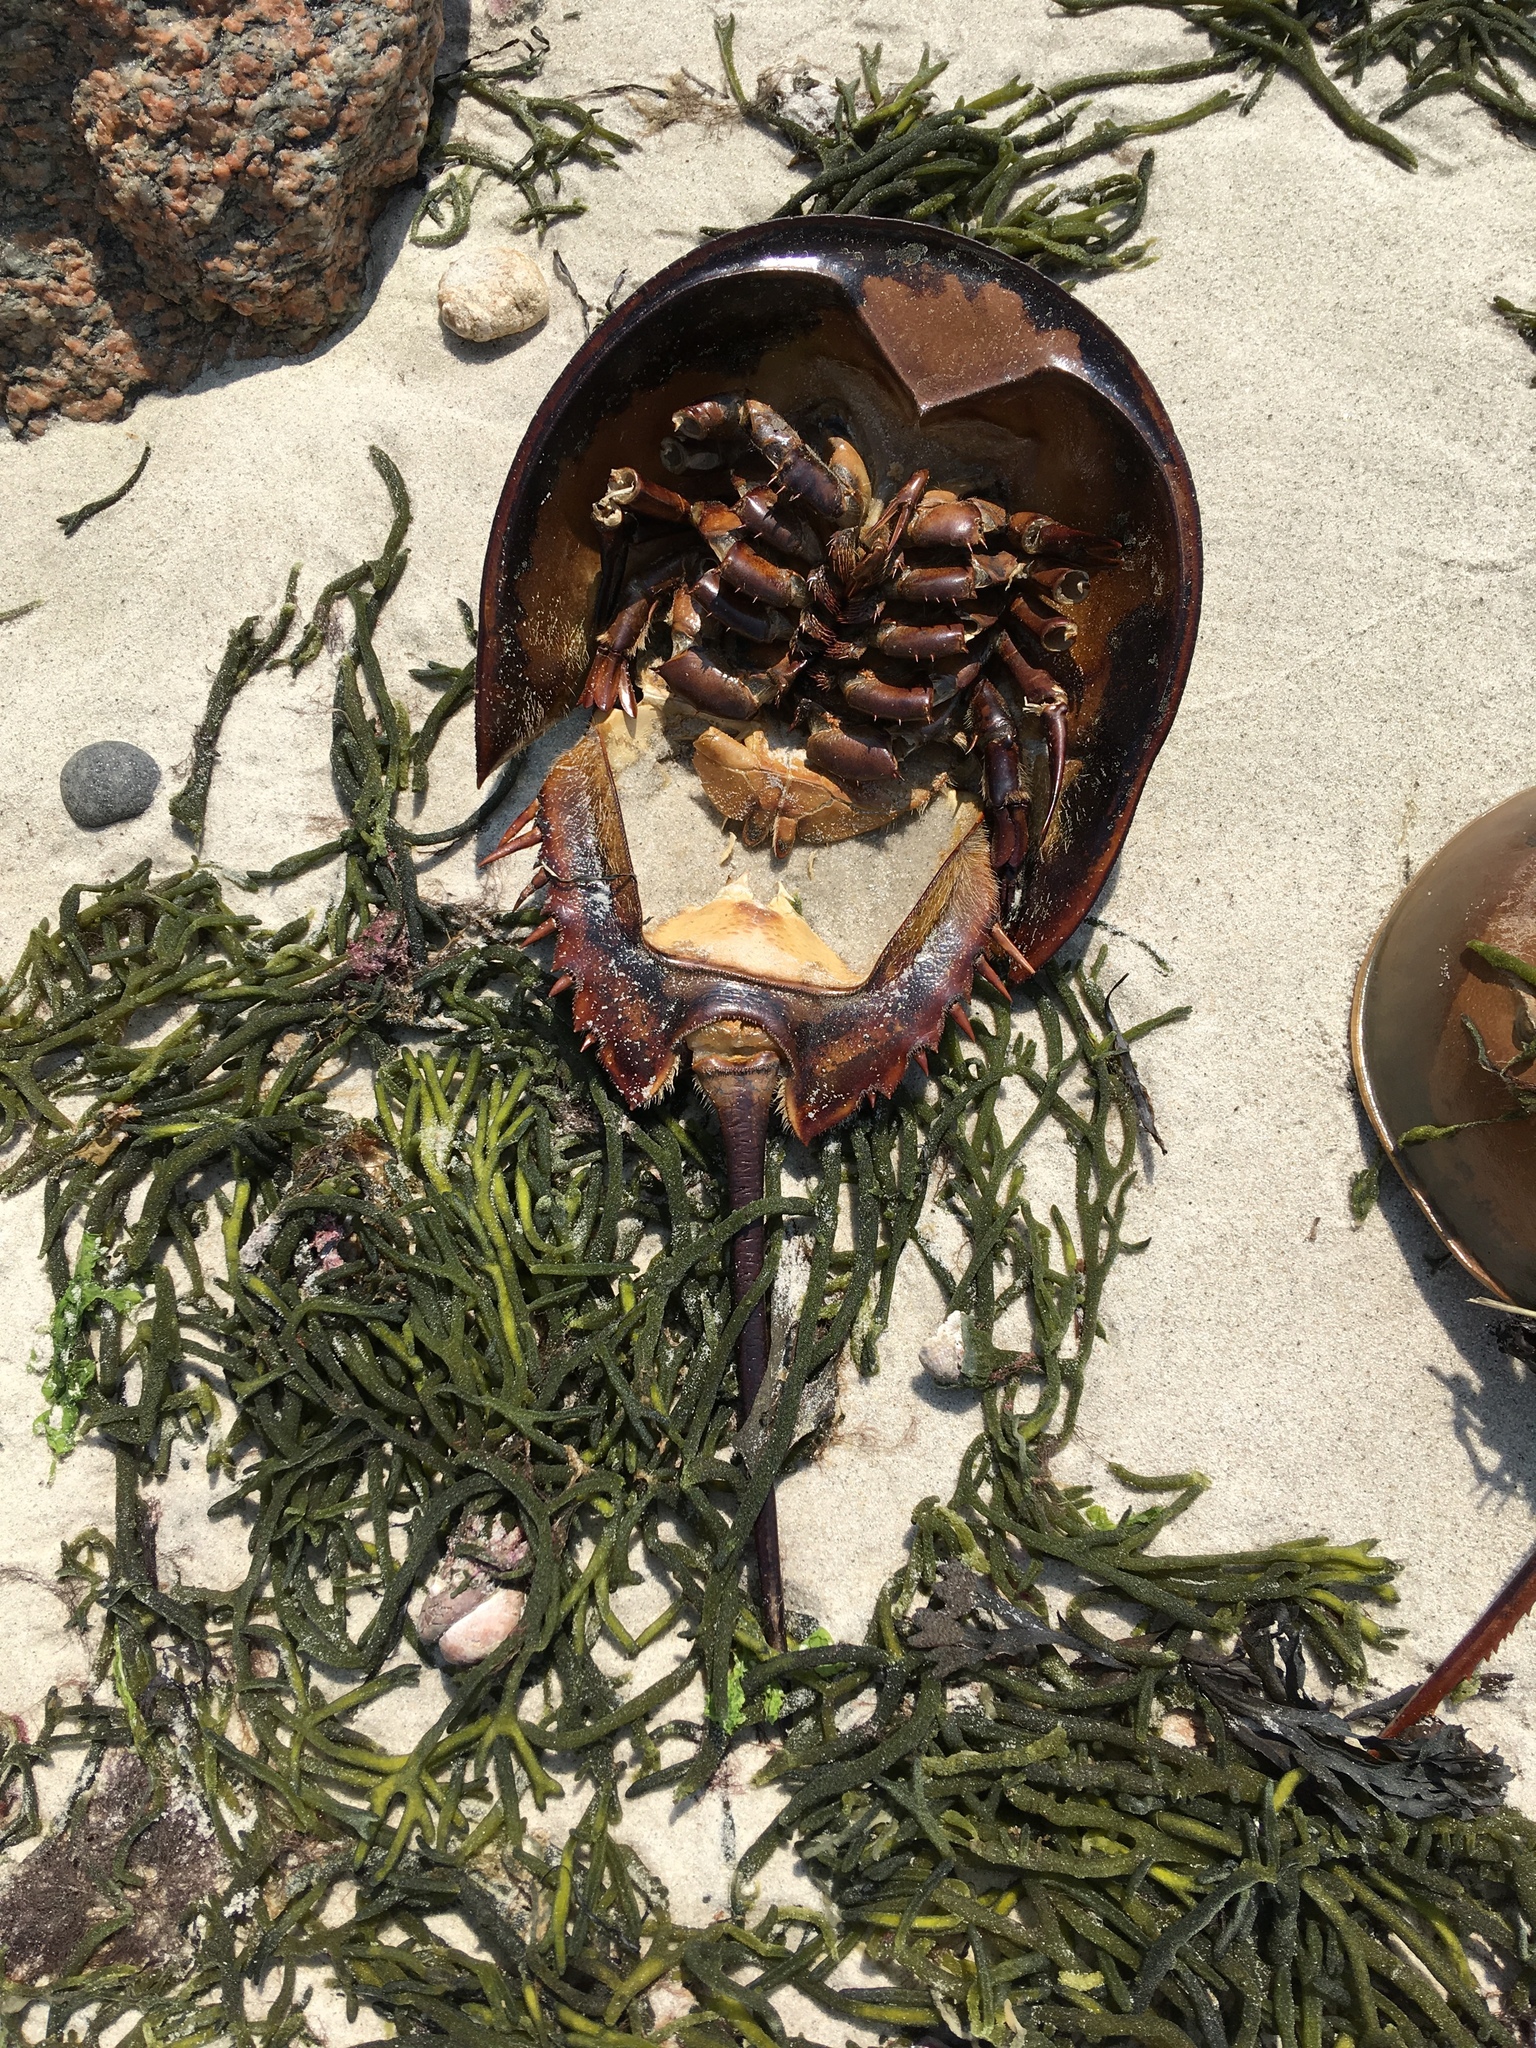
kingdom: Animalia
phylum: Arthropoda
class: Merostomata
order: Xiphosurida
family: Limulidae
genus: Limulus
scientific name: Limulus polyphemus
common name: Horseshoe crab
